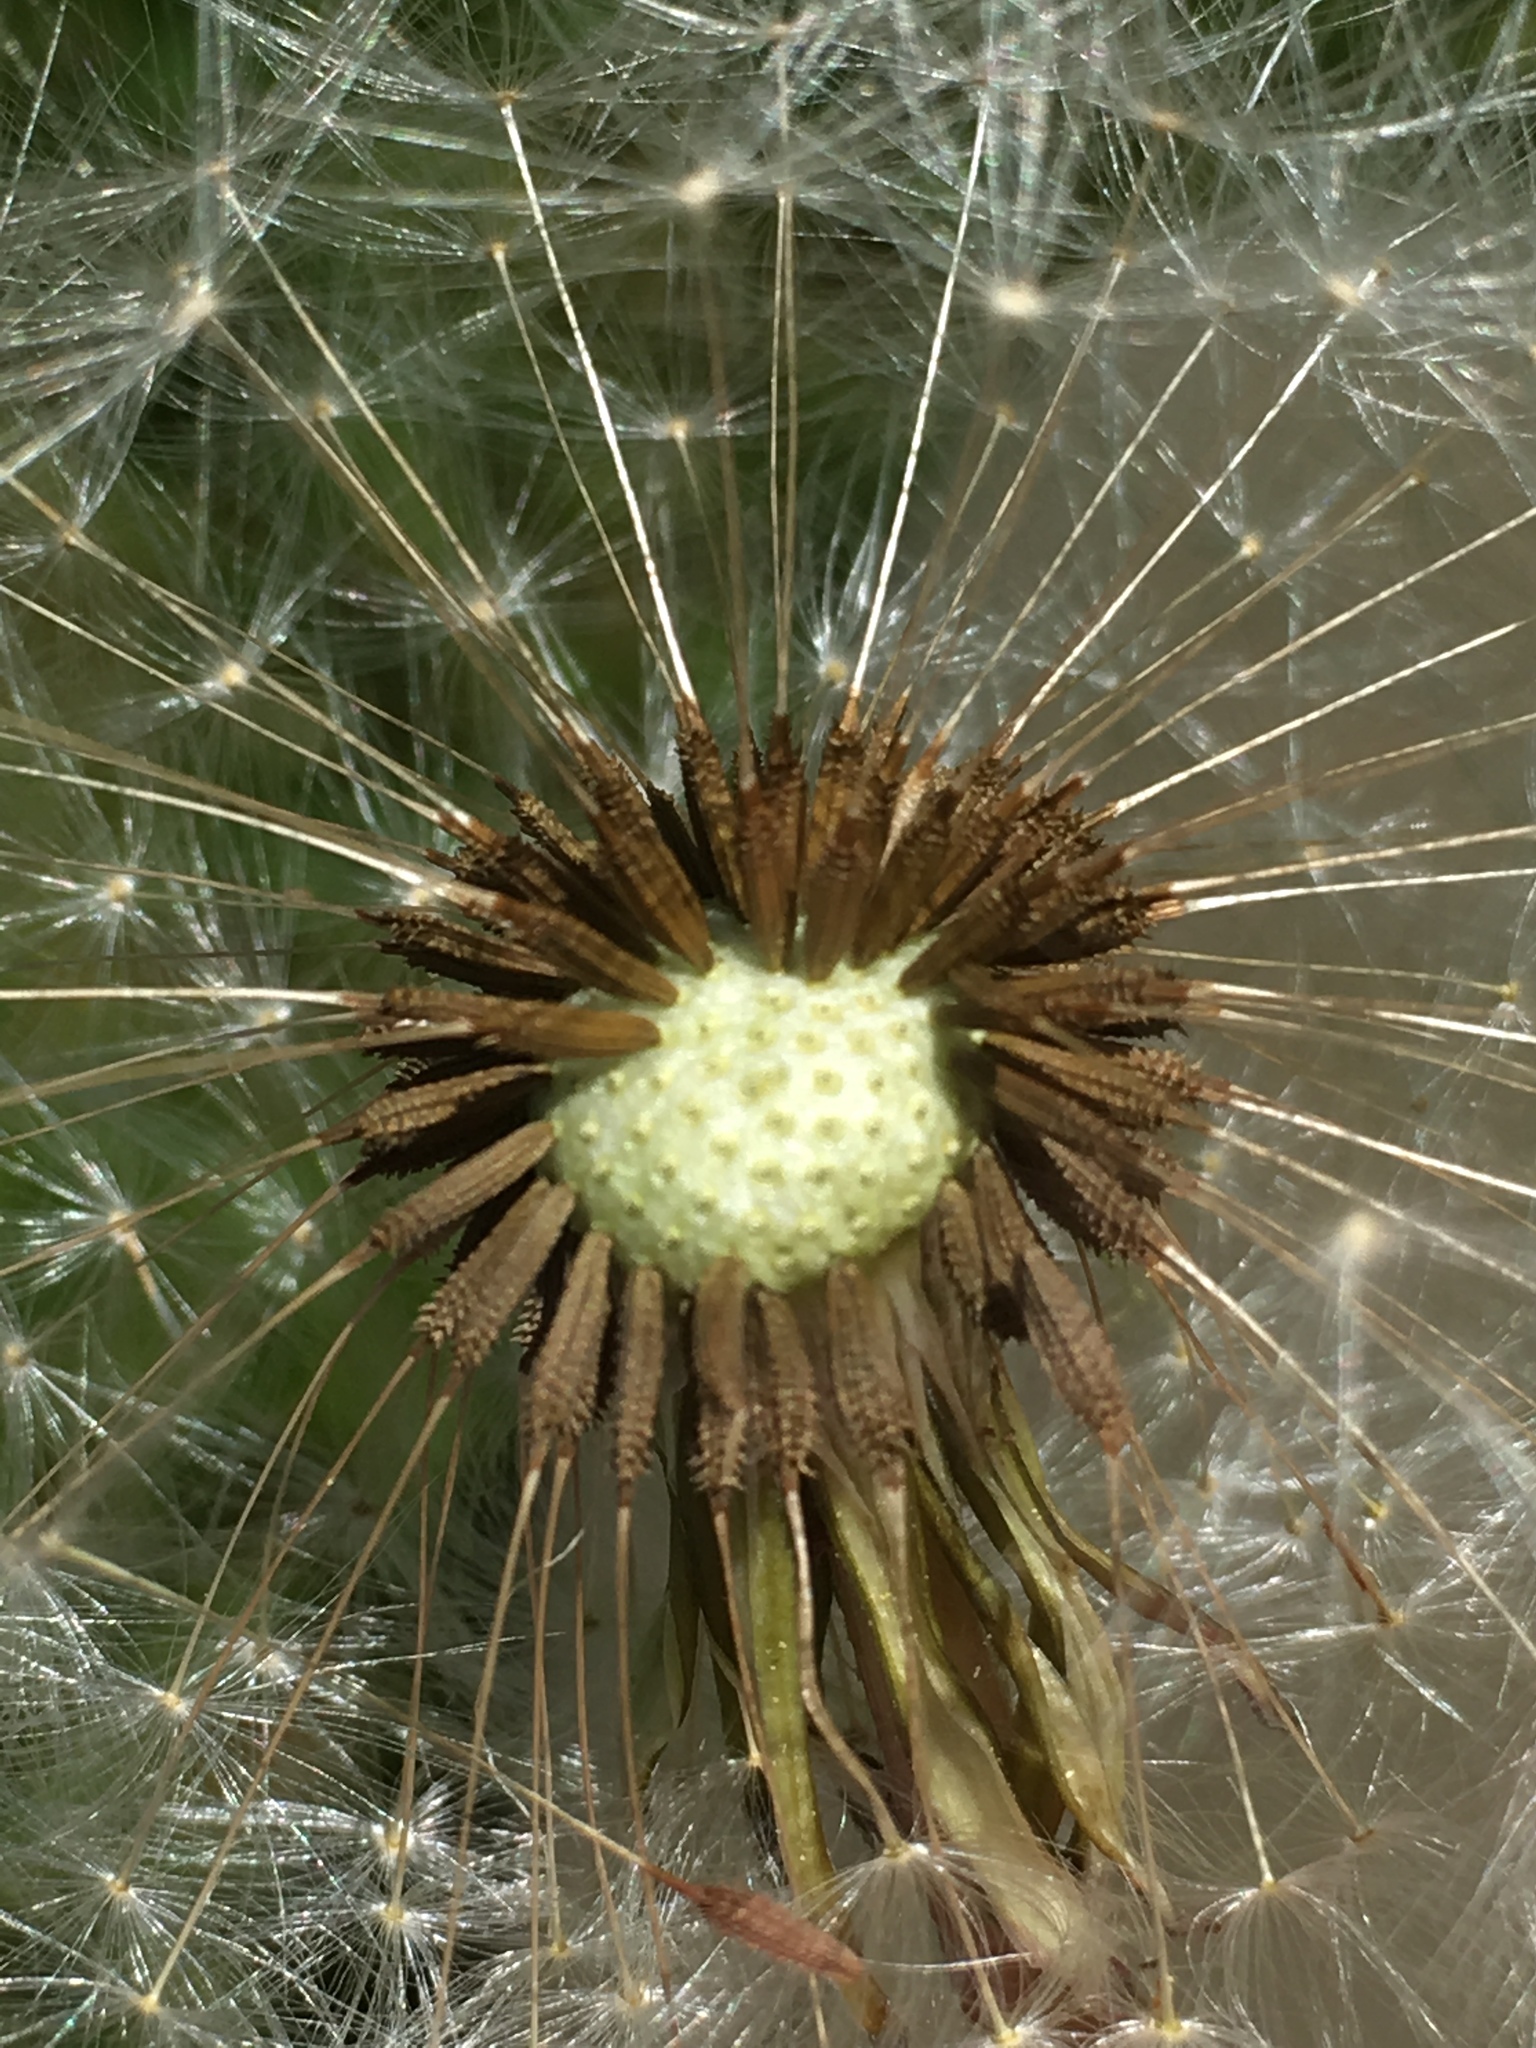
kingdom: Plantae
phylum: Tracheophyta
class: Magnoliopsida
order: Asterales
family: Asteraceae
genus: Taraxacum
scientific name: Taraxacum officinale
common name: Common dandelion
